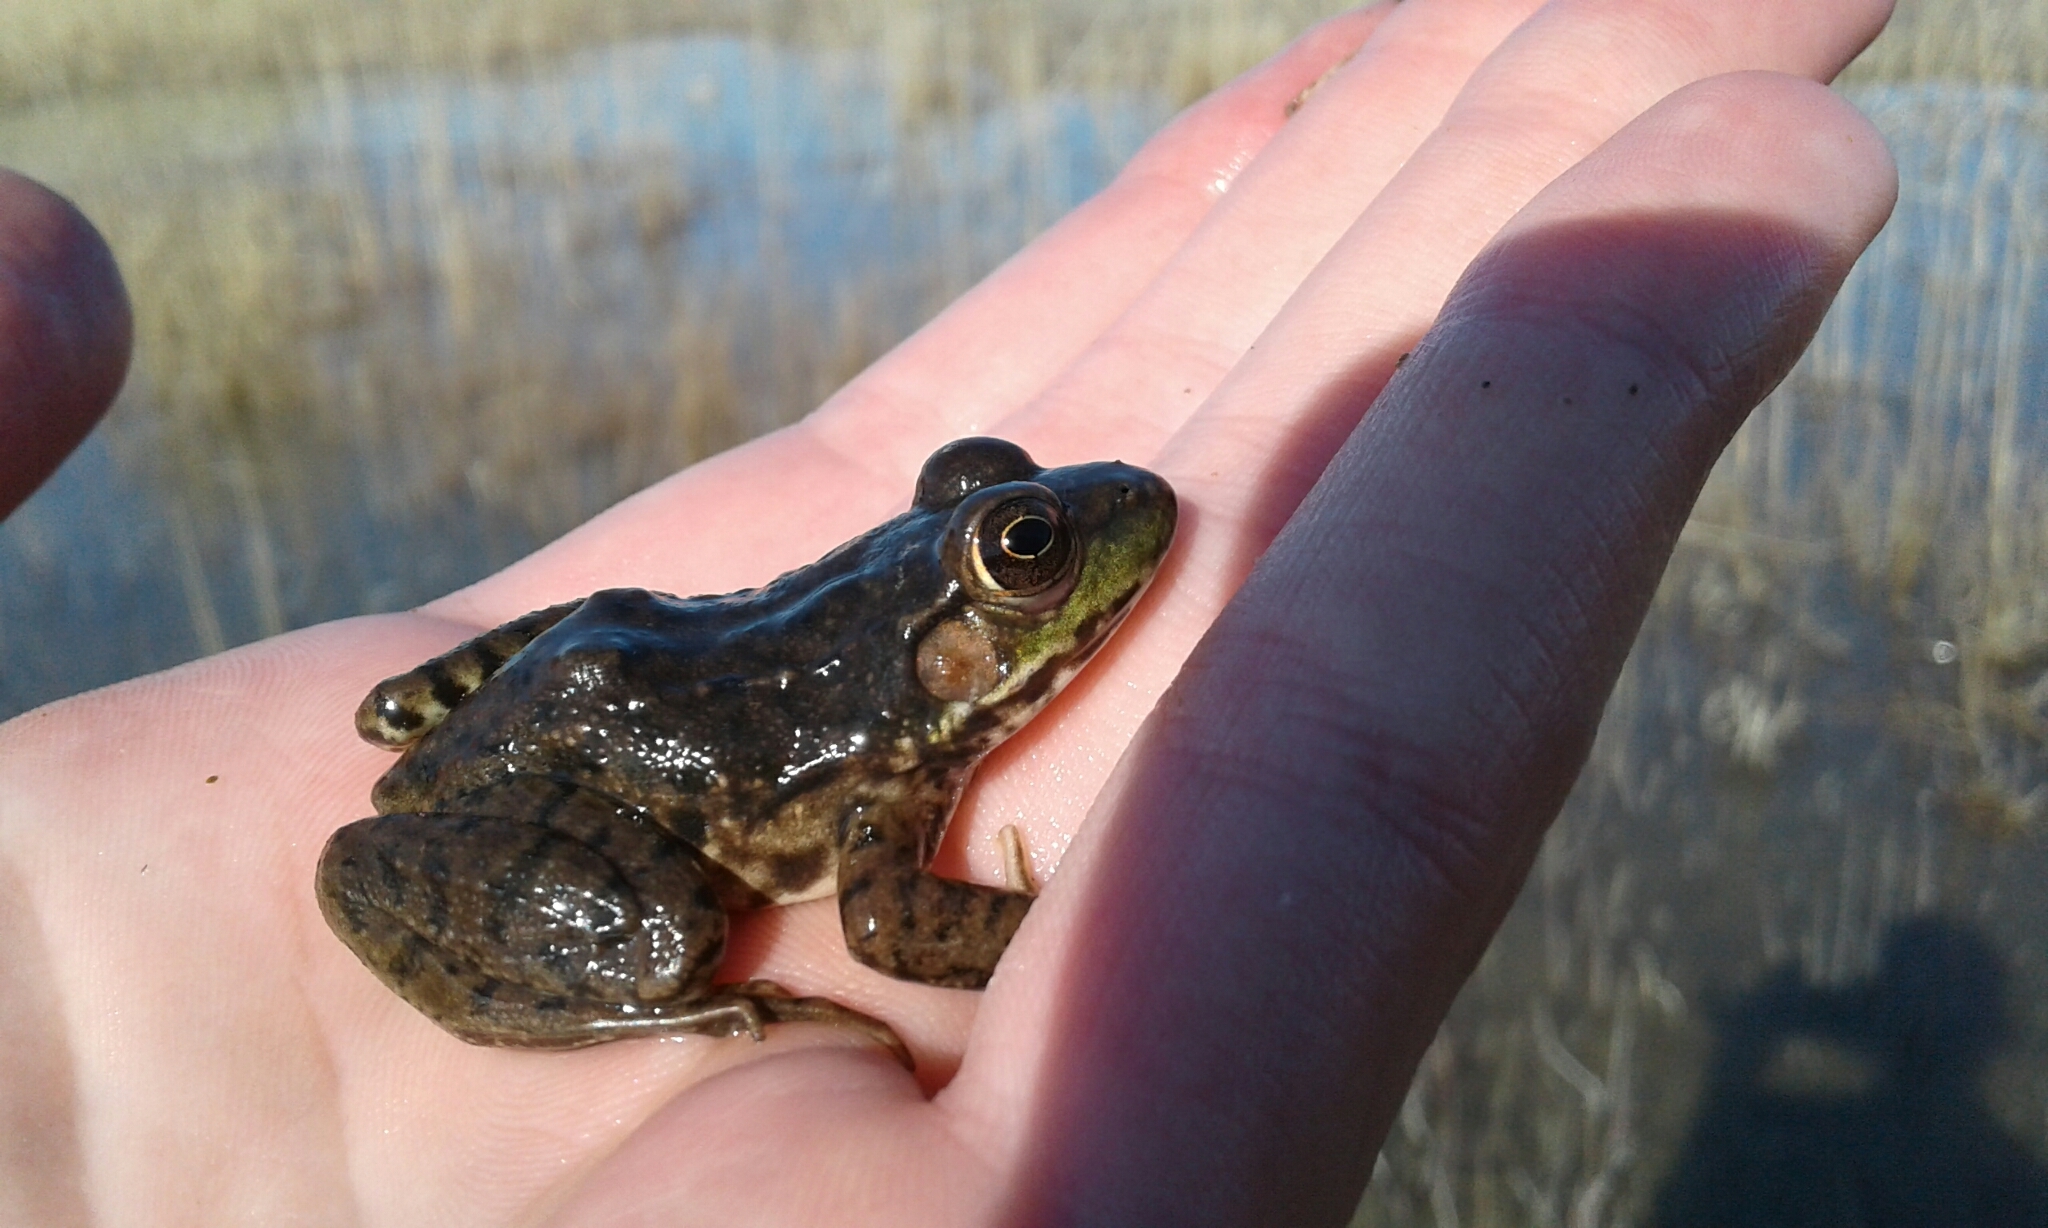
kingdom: Animalia
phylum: Chordata
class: Amphibia
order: Anura
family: Ranidae
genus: Lithobates
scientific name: Lithobates clamitans
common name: Green frog
